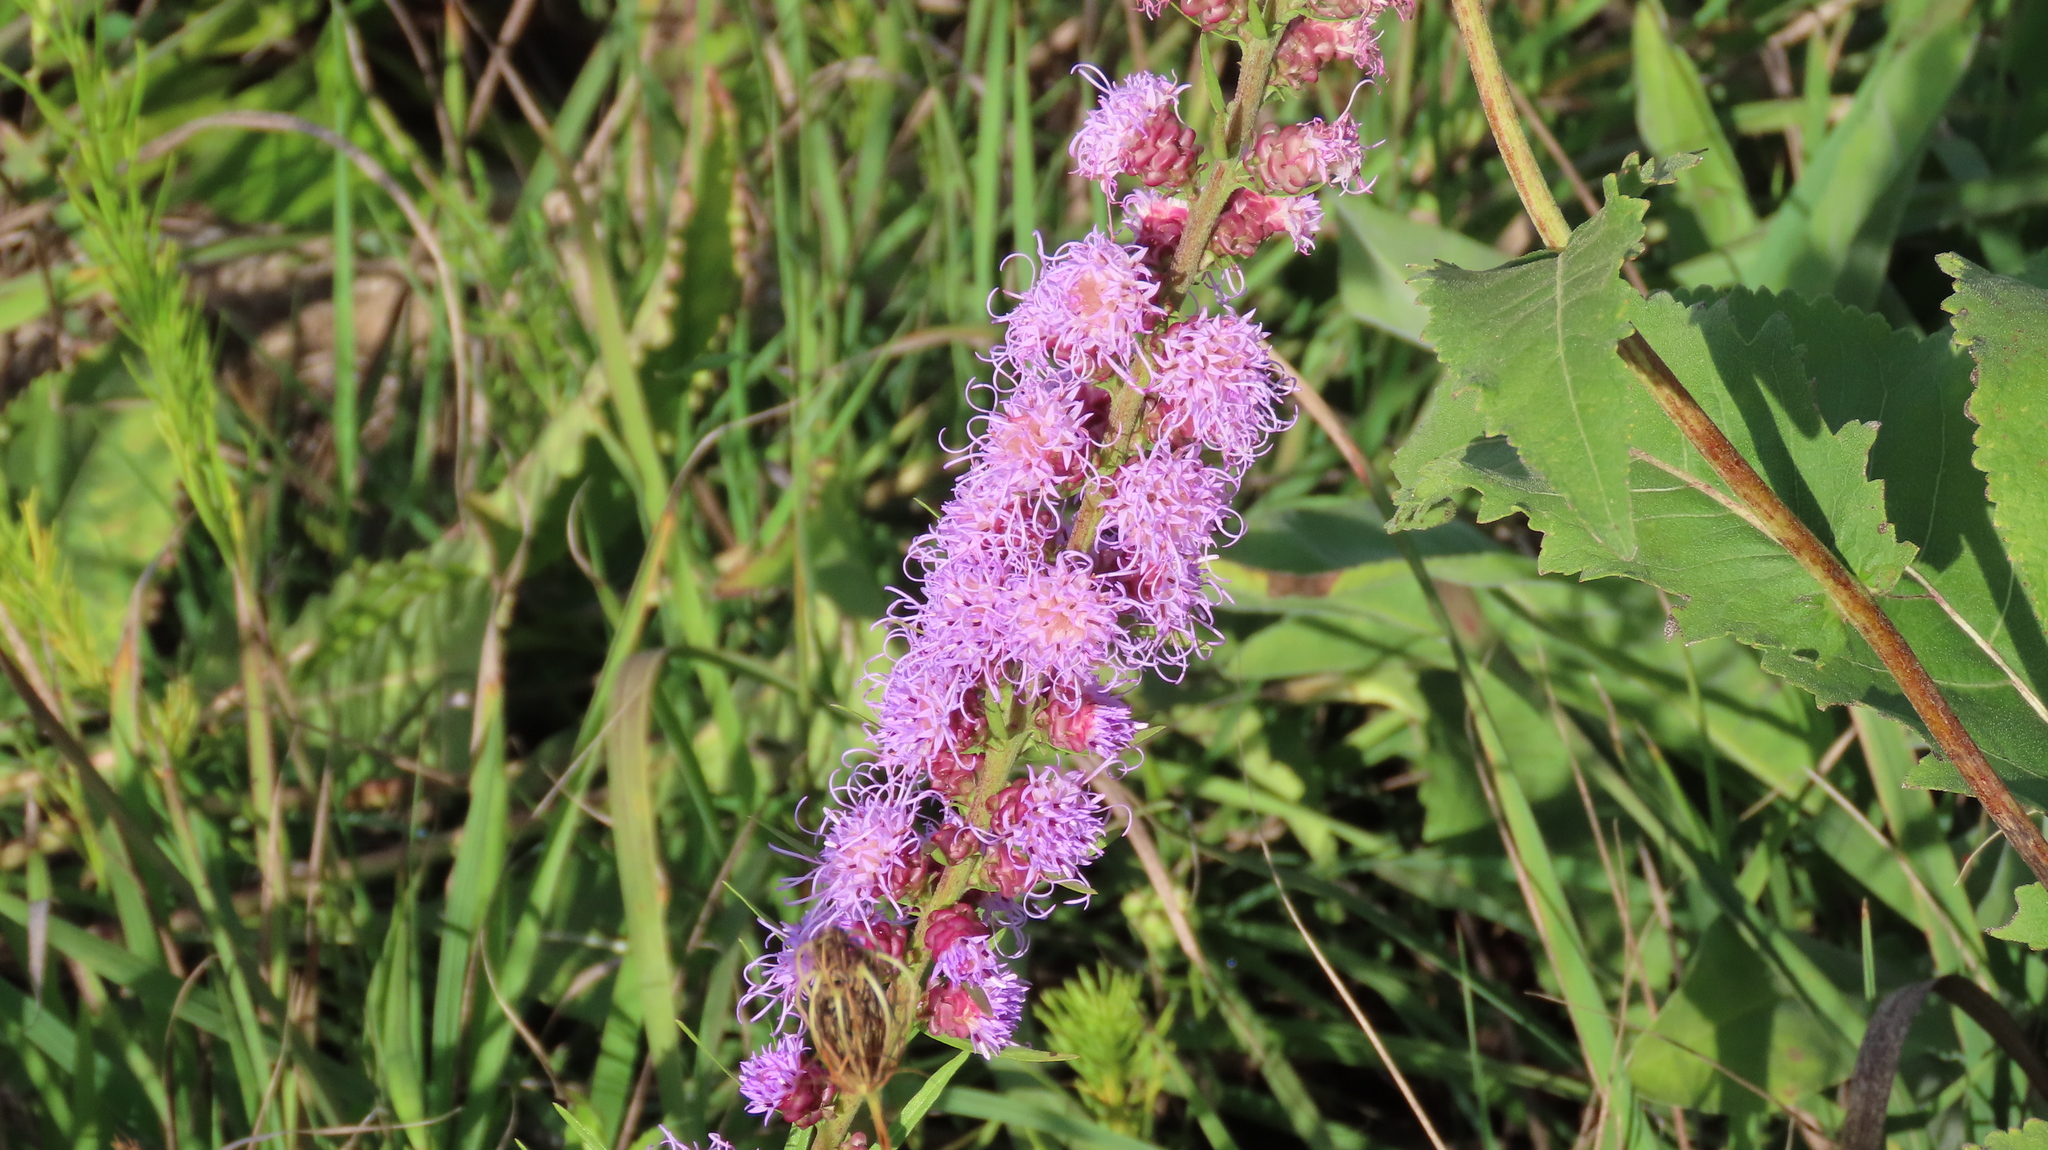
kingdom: Plantae
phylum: Tracheophyta
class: Magnoliopsida
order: Asterales
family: Asteraceae
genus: Liatris
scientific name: Liatris aspera
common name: Lacerate blazing-star
